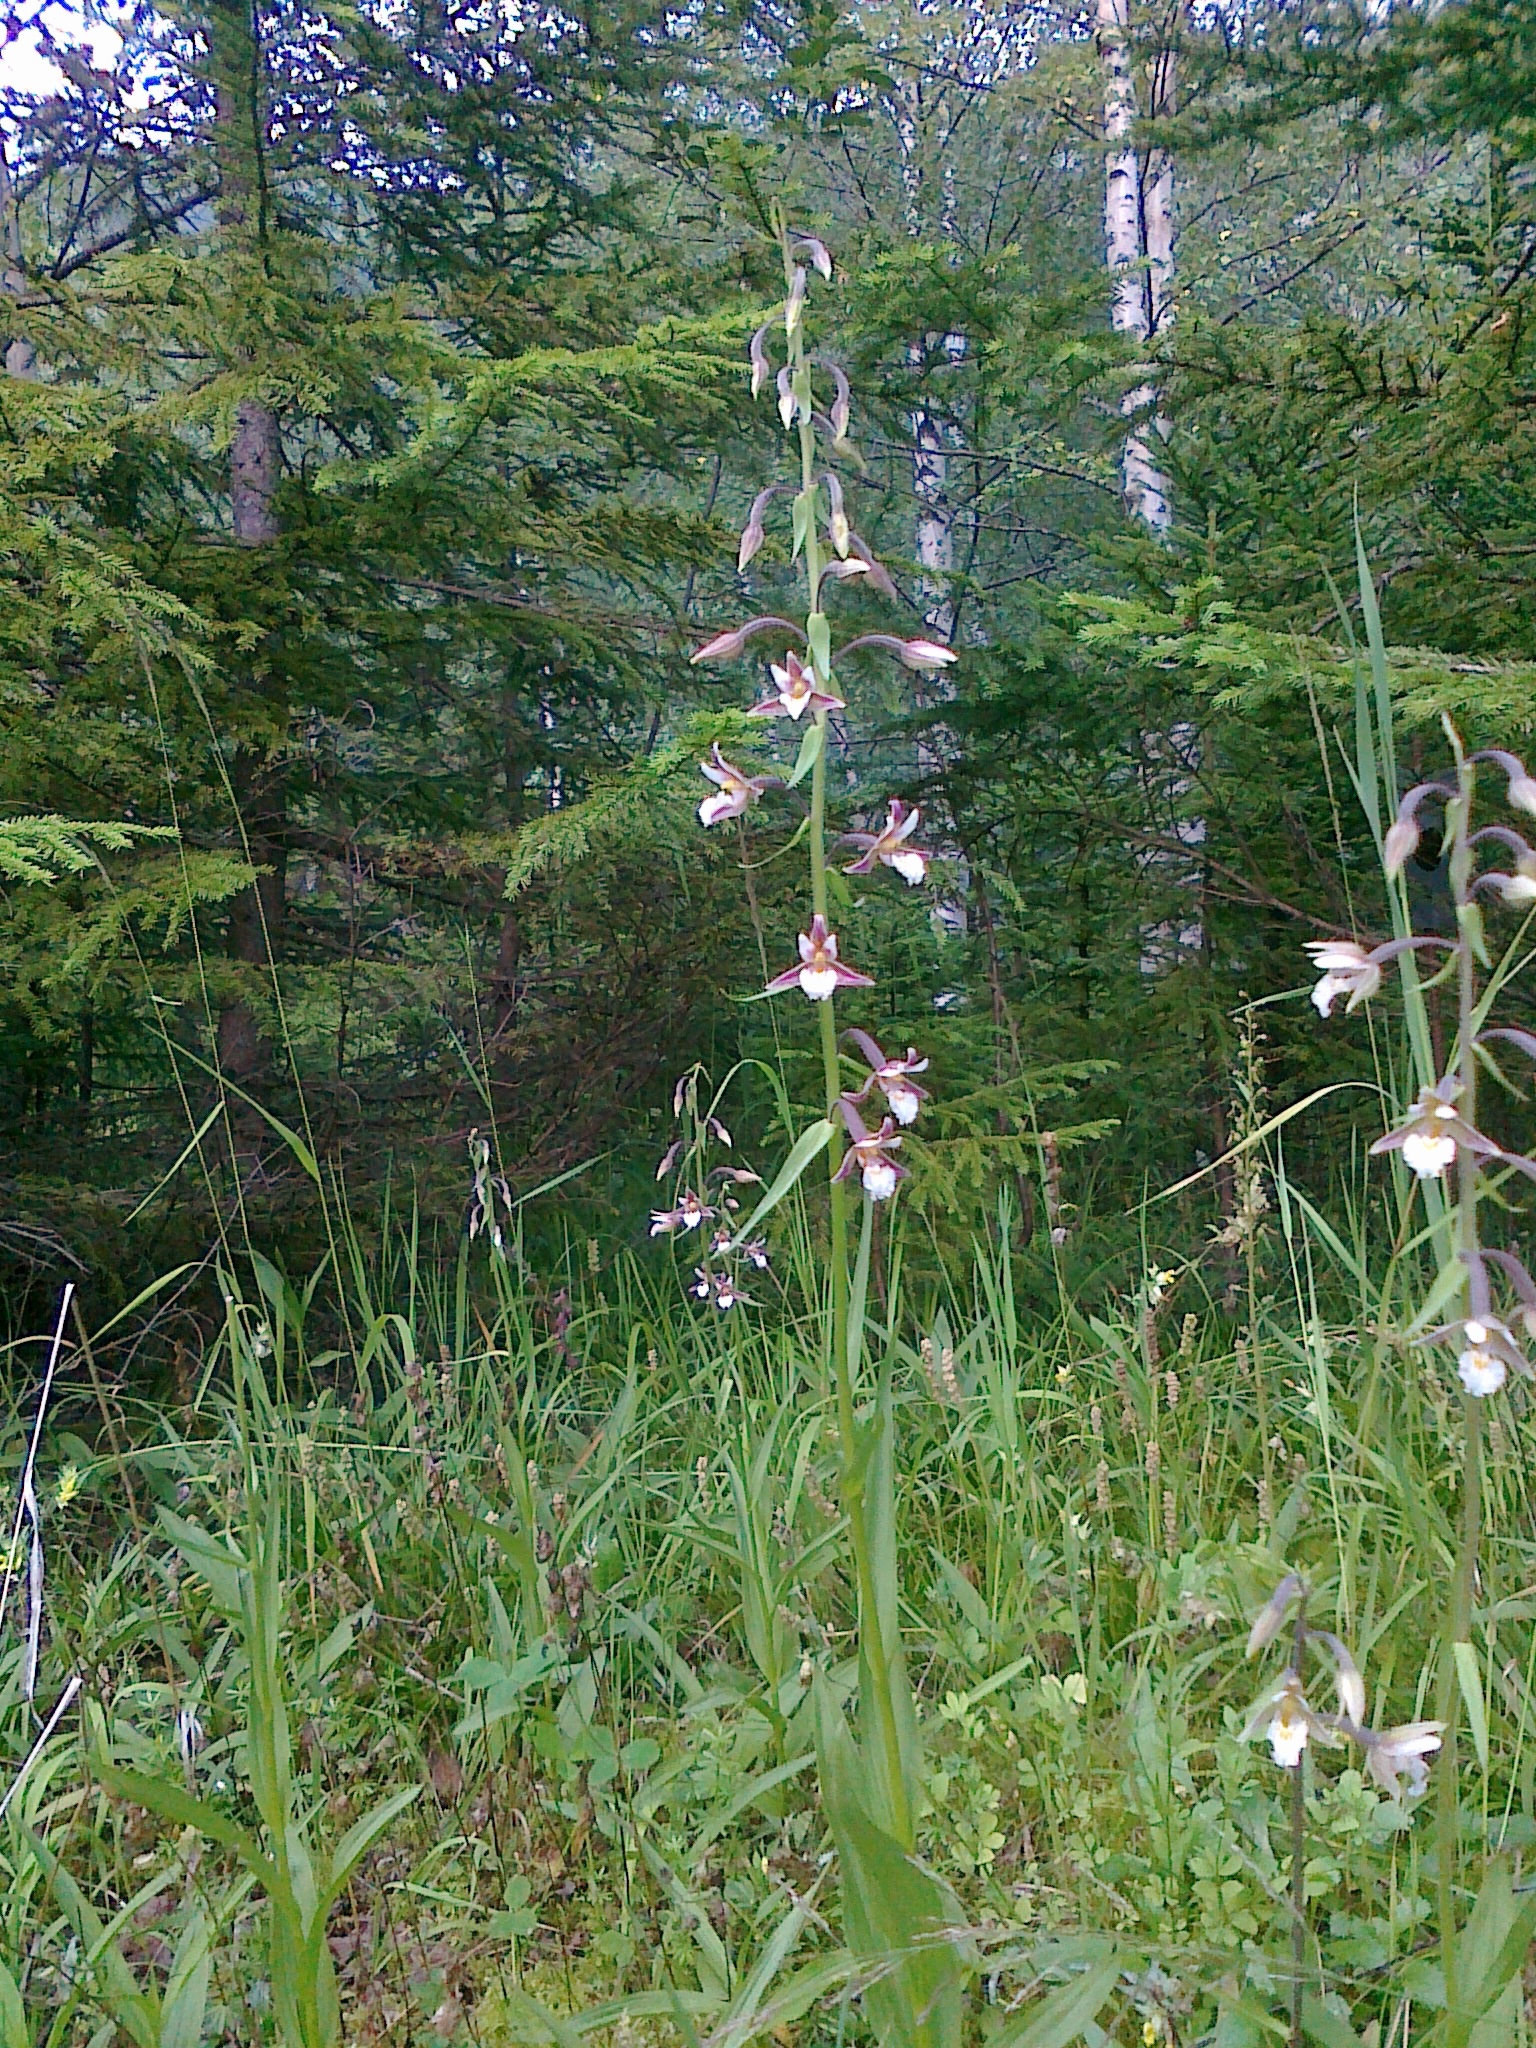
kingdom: Plantae
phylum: Tracheophyta
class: Liliopsida
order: Asparagales
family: Orchidaceae
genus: Epipactis
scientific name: Epipactis palustris
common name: Marsh helleborine
